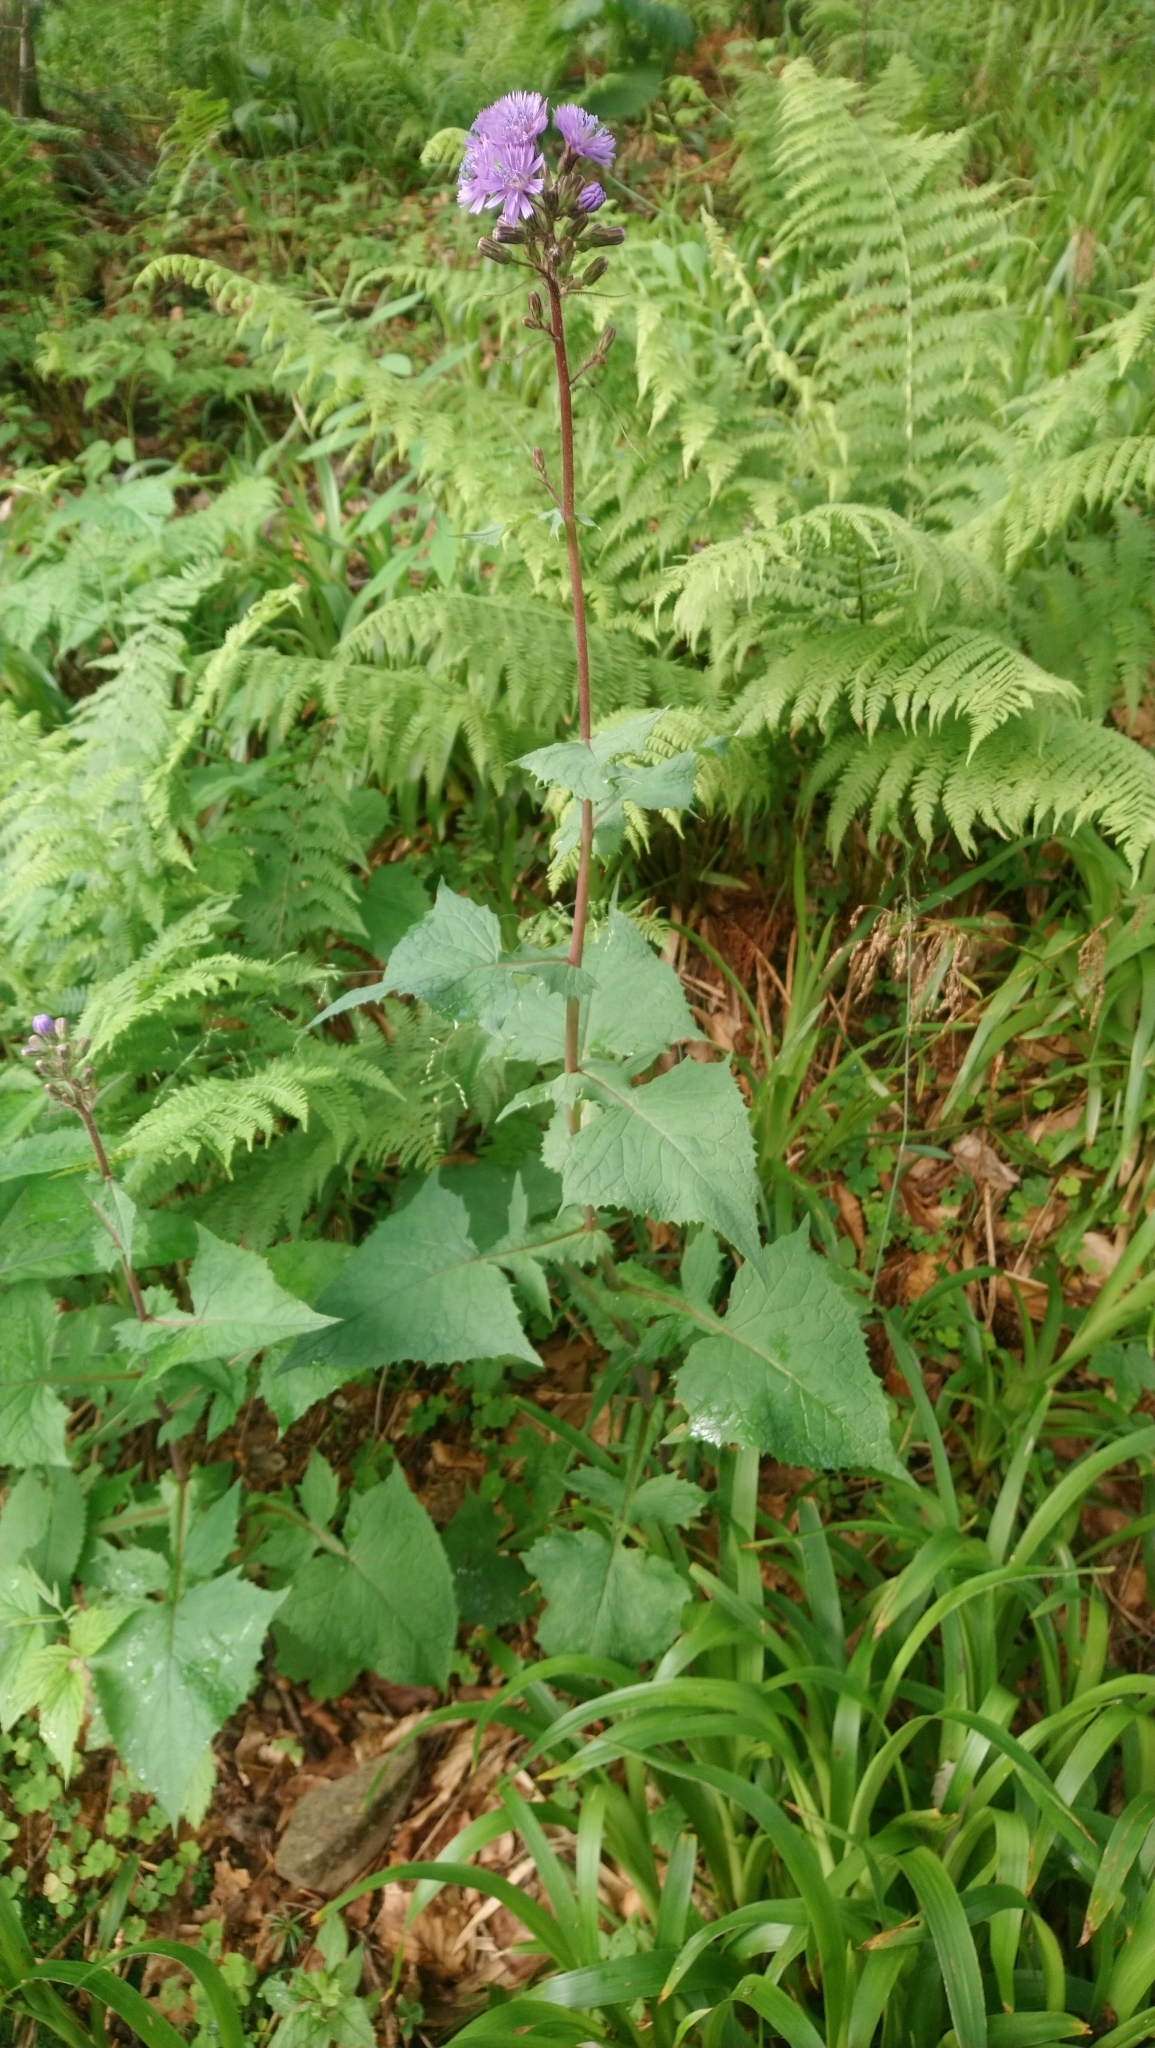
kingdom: Plantae
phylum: Tracheophyta
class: Magnoliopsida
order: Asterales
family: Asteraceae
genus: Cicerbita
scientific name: Cicerbita alpina
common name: Alpine blue-sow-thistle
